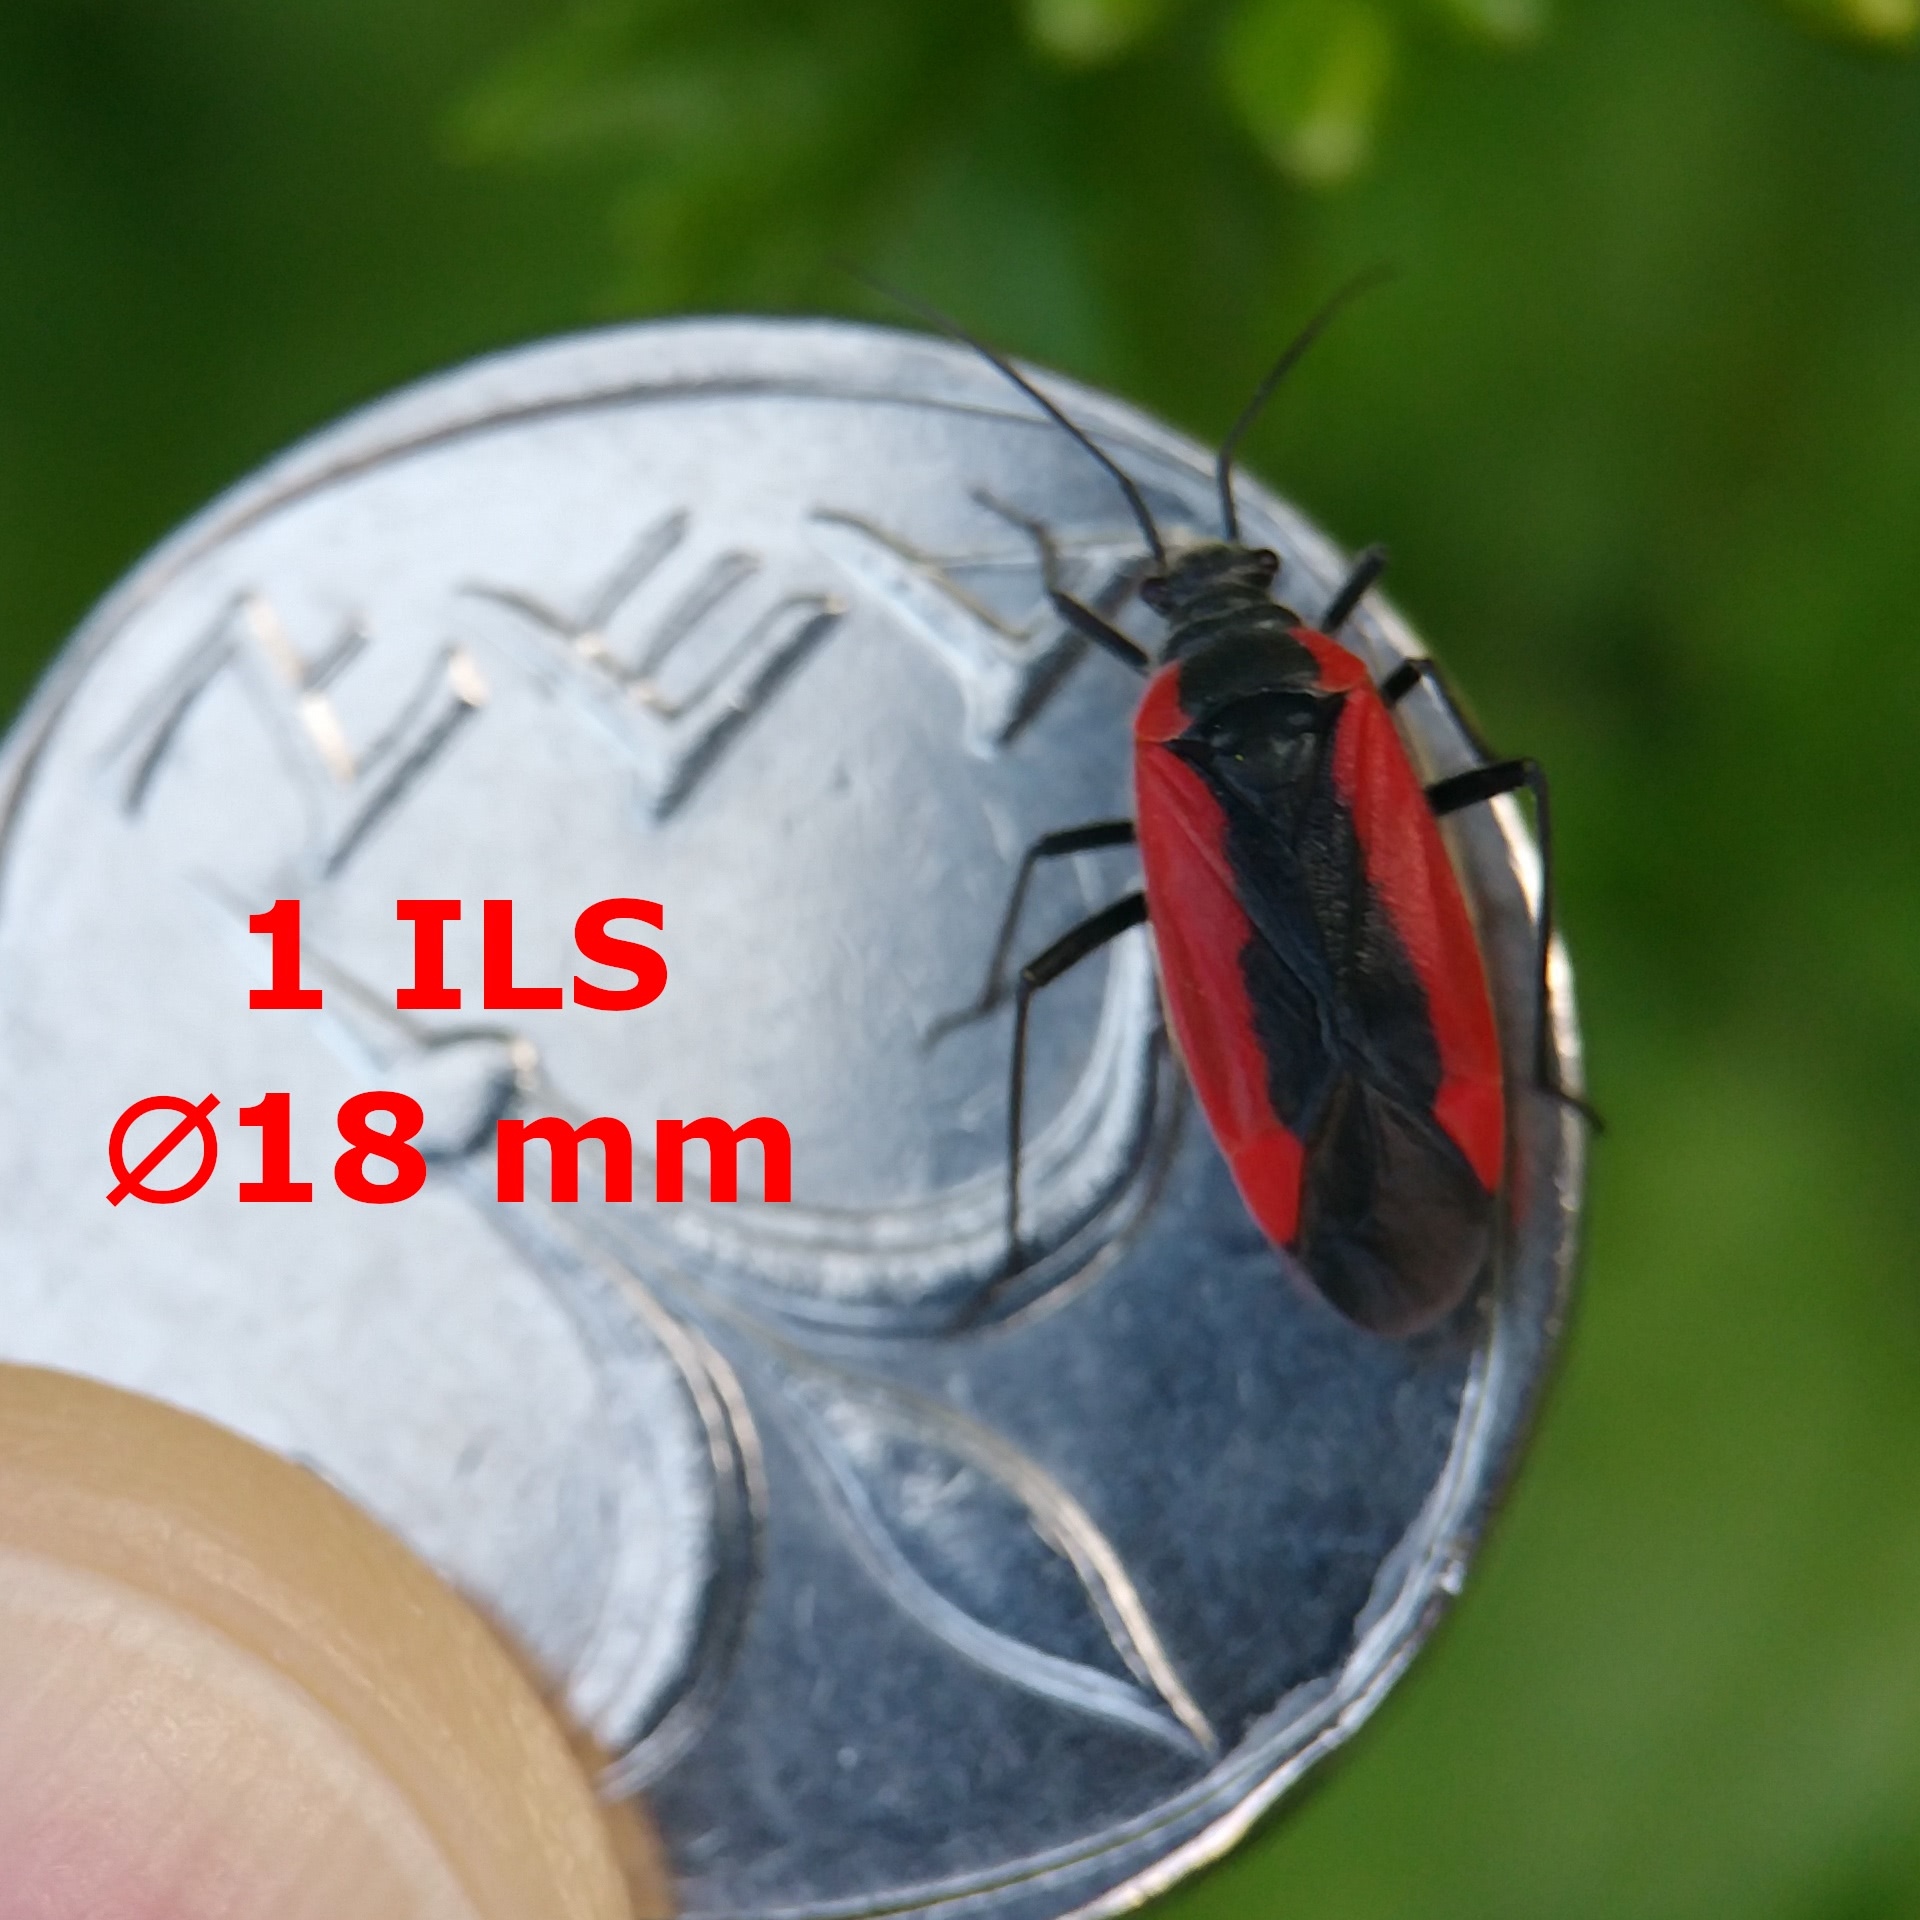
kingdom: Animalia
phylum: Arthropoda
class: Insecta
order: Hemiptera
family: Miridae
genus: Dionconotus
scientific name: Dionconotus neglectus
